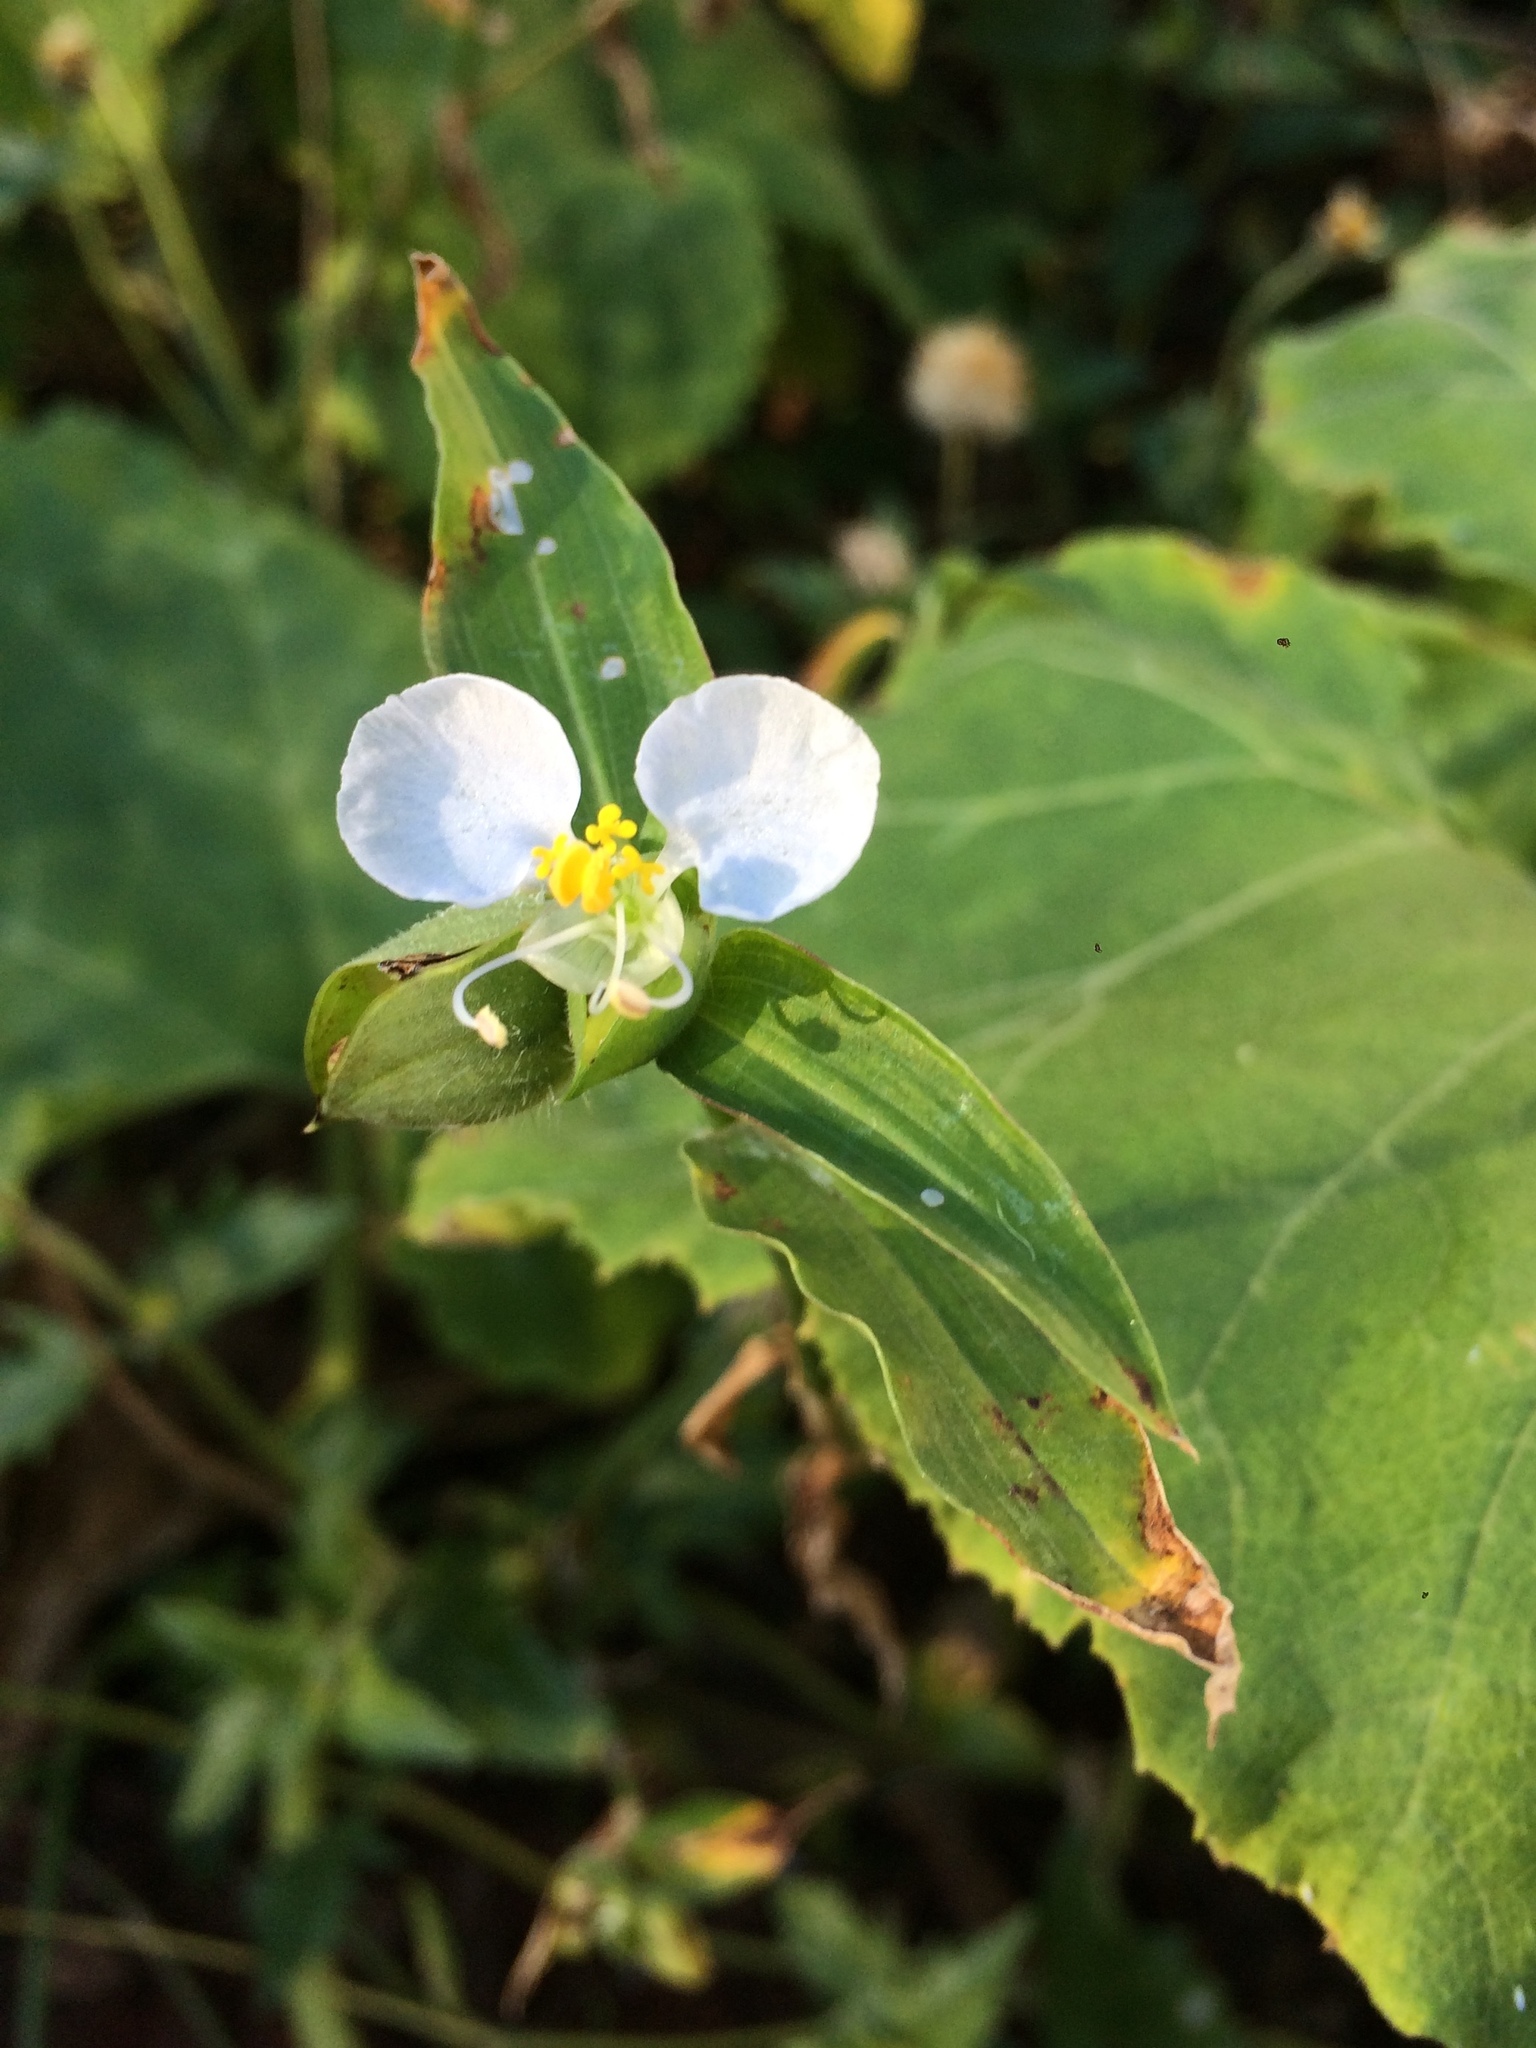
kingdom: Plantae
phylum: Tracheophyta
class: Liliopsida
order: Commelinales
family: Commelinaceae
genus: Commelina
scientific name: Commelina erecta
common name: Blousel blommetjie
